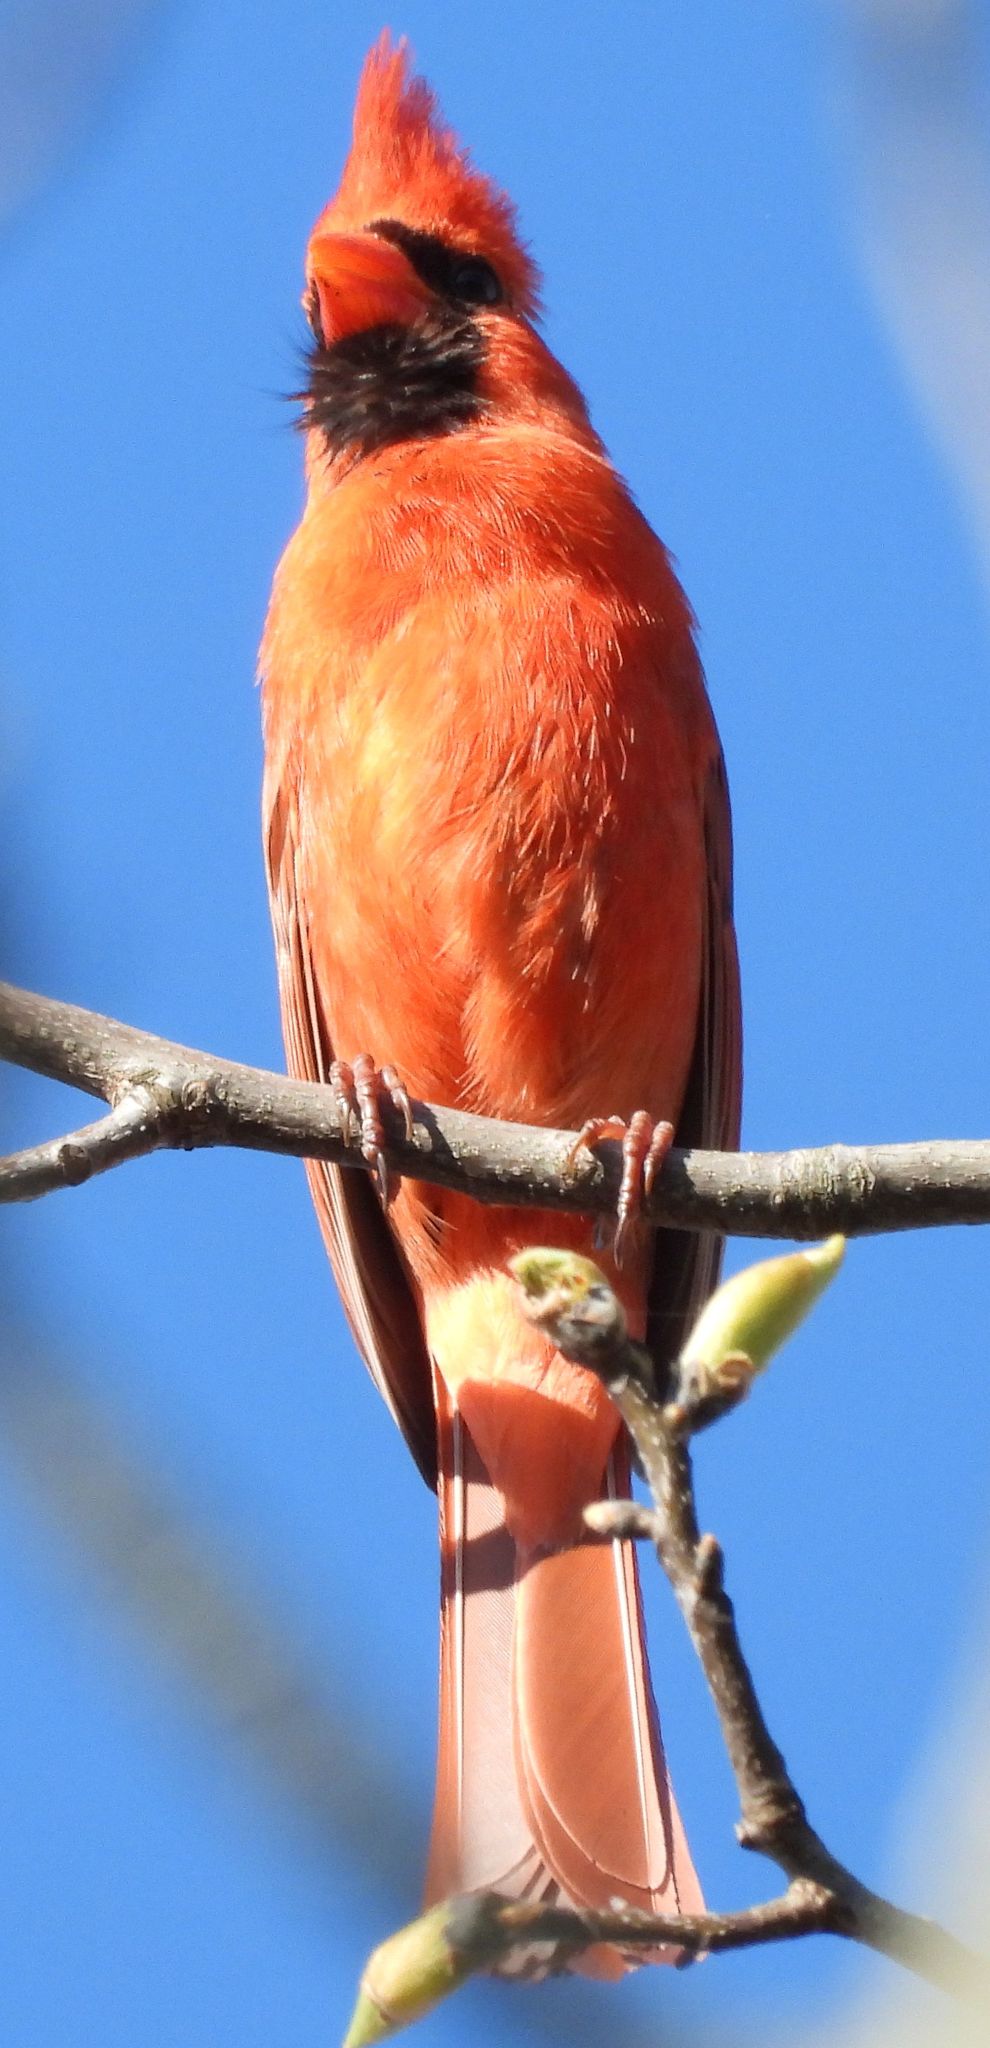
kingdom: Animalia
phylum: Chordata
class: Aves
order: Passeriformes
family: Cardinalidae
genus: Cardinalis
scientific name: Cardinalis cardinalis
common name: Northern cardinal
